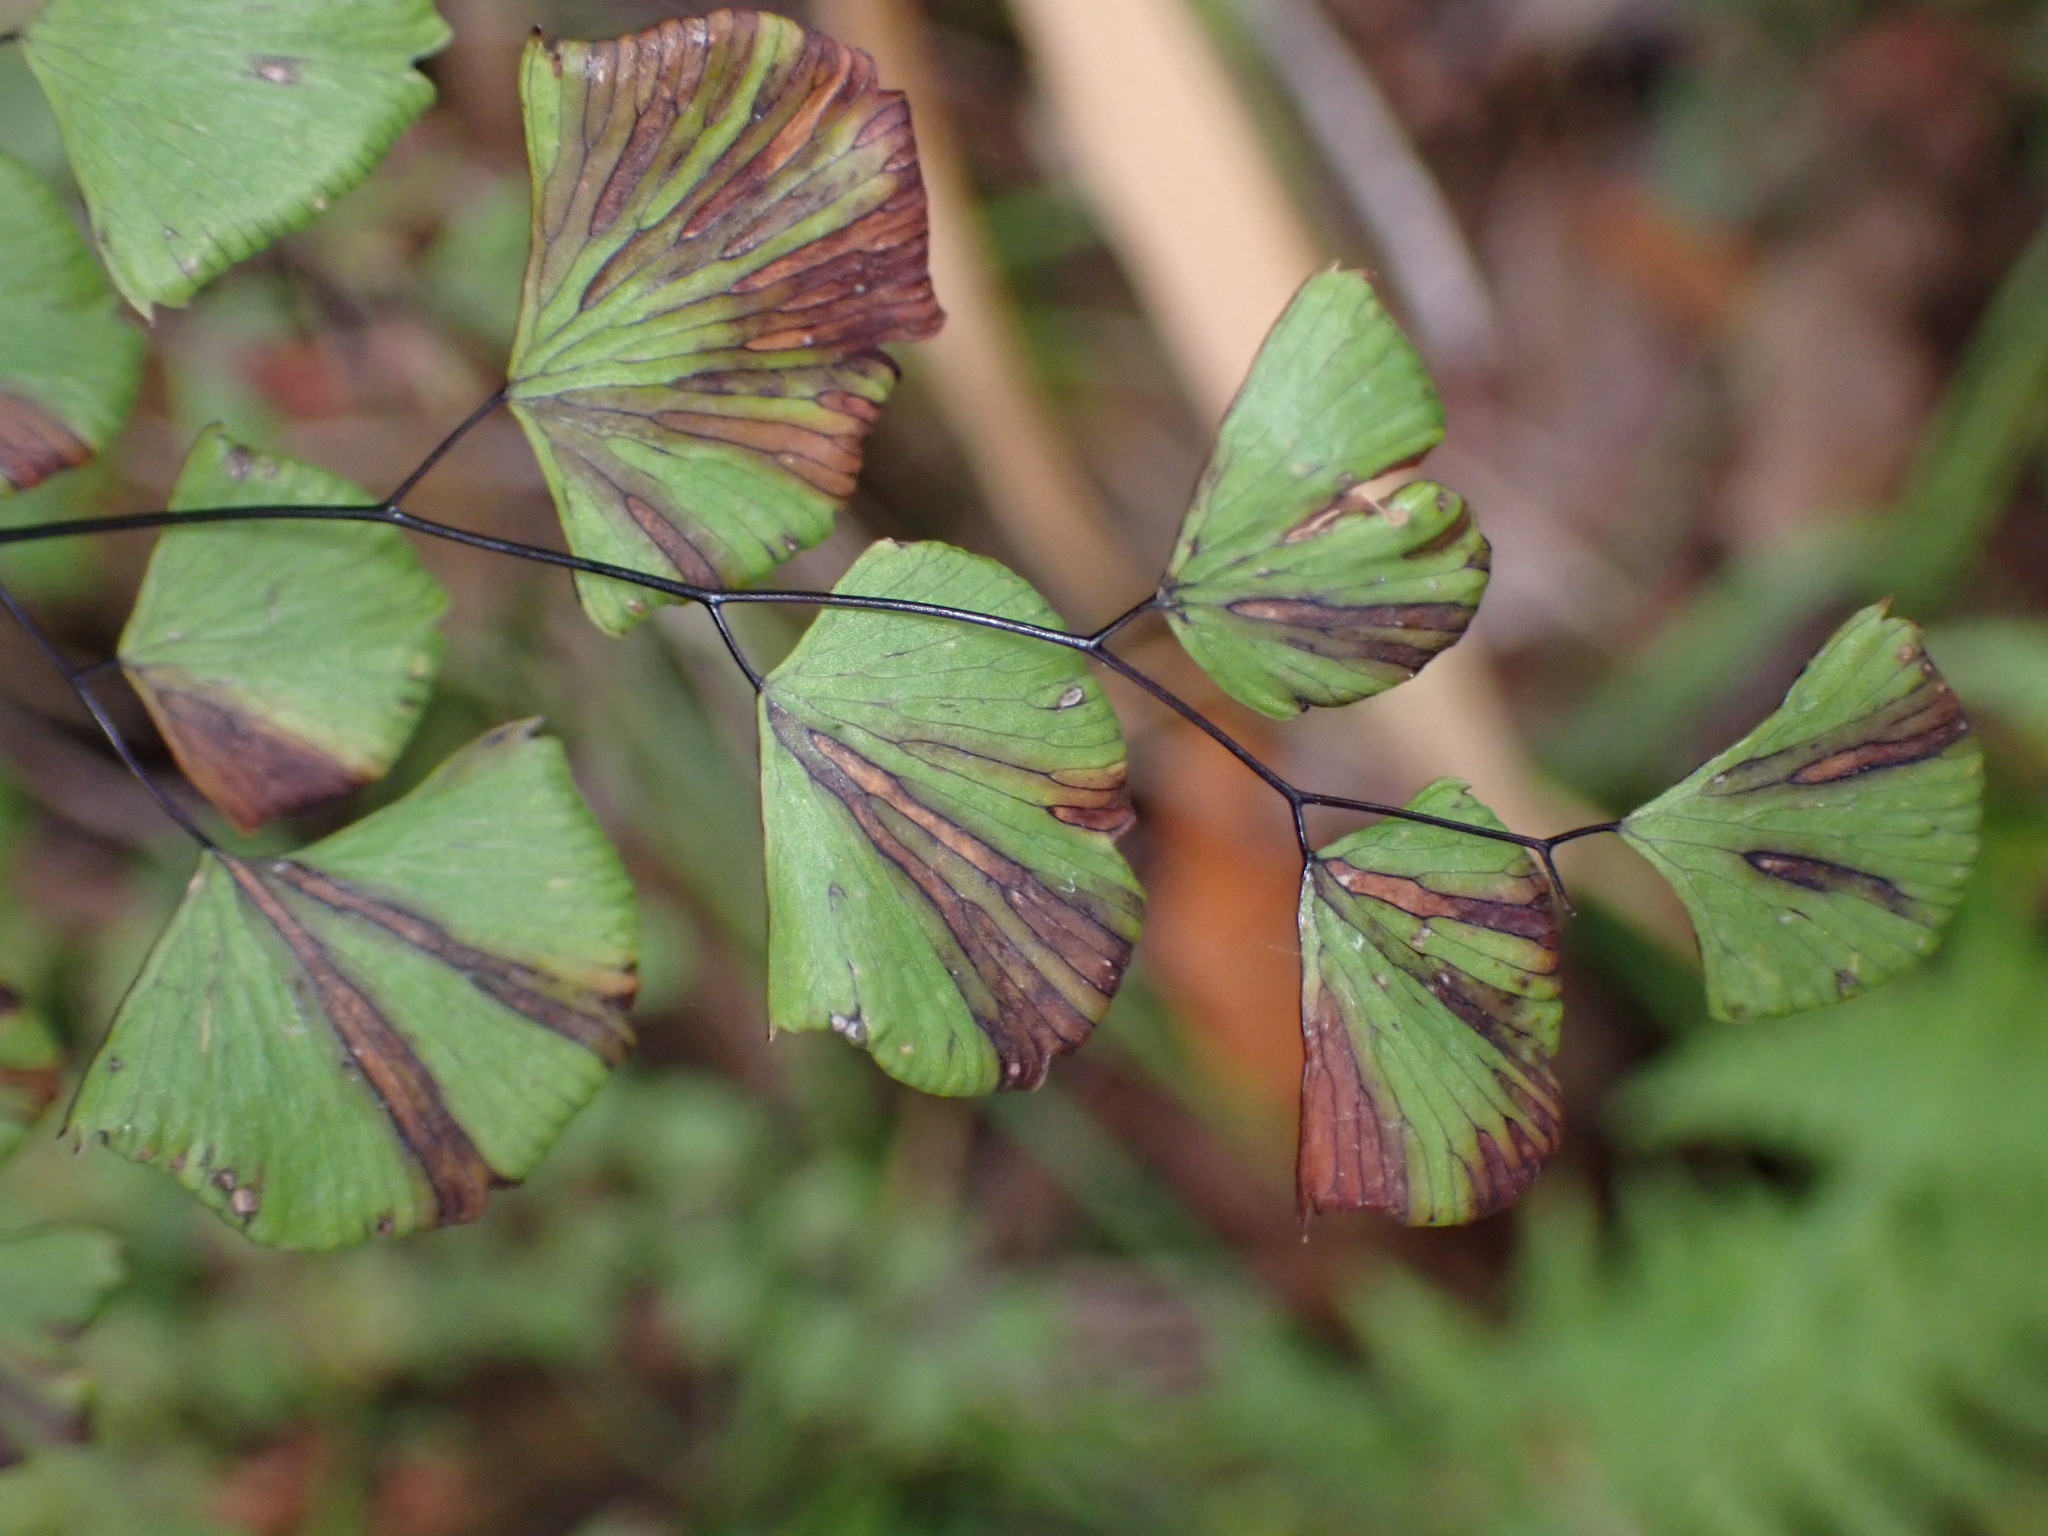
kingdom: Plantae
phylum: Tracheophyta
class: Polypodiopsida
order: Polypodiales
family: Pteridaceae
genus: Adiantum
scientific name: Adiantum jordanii
